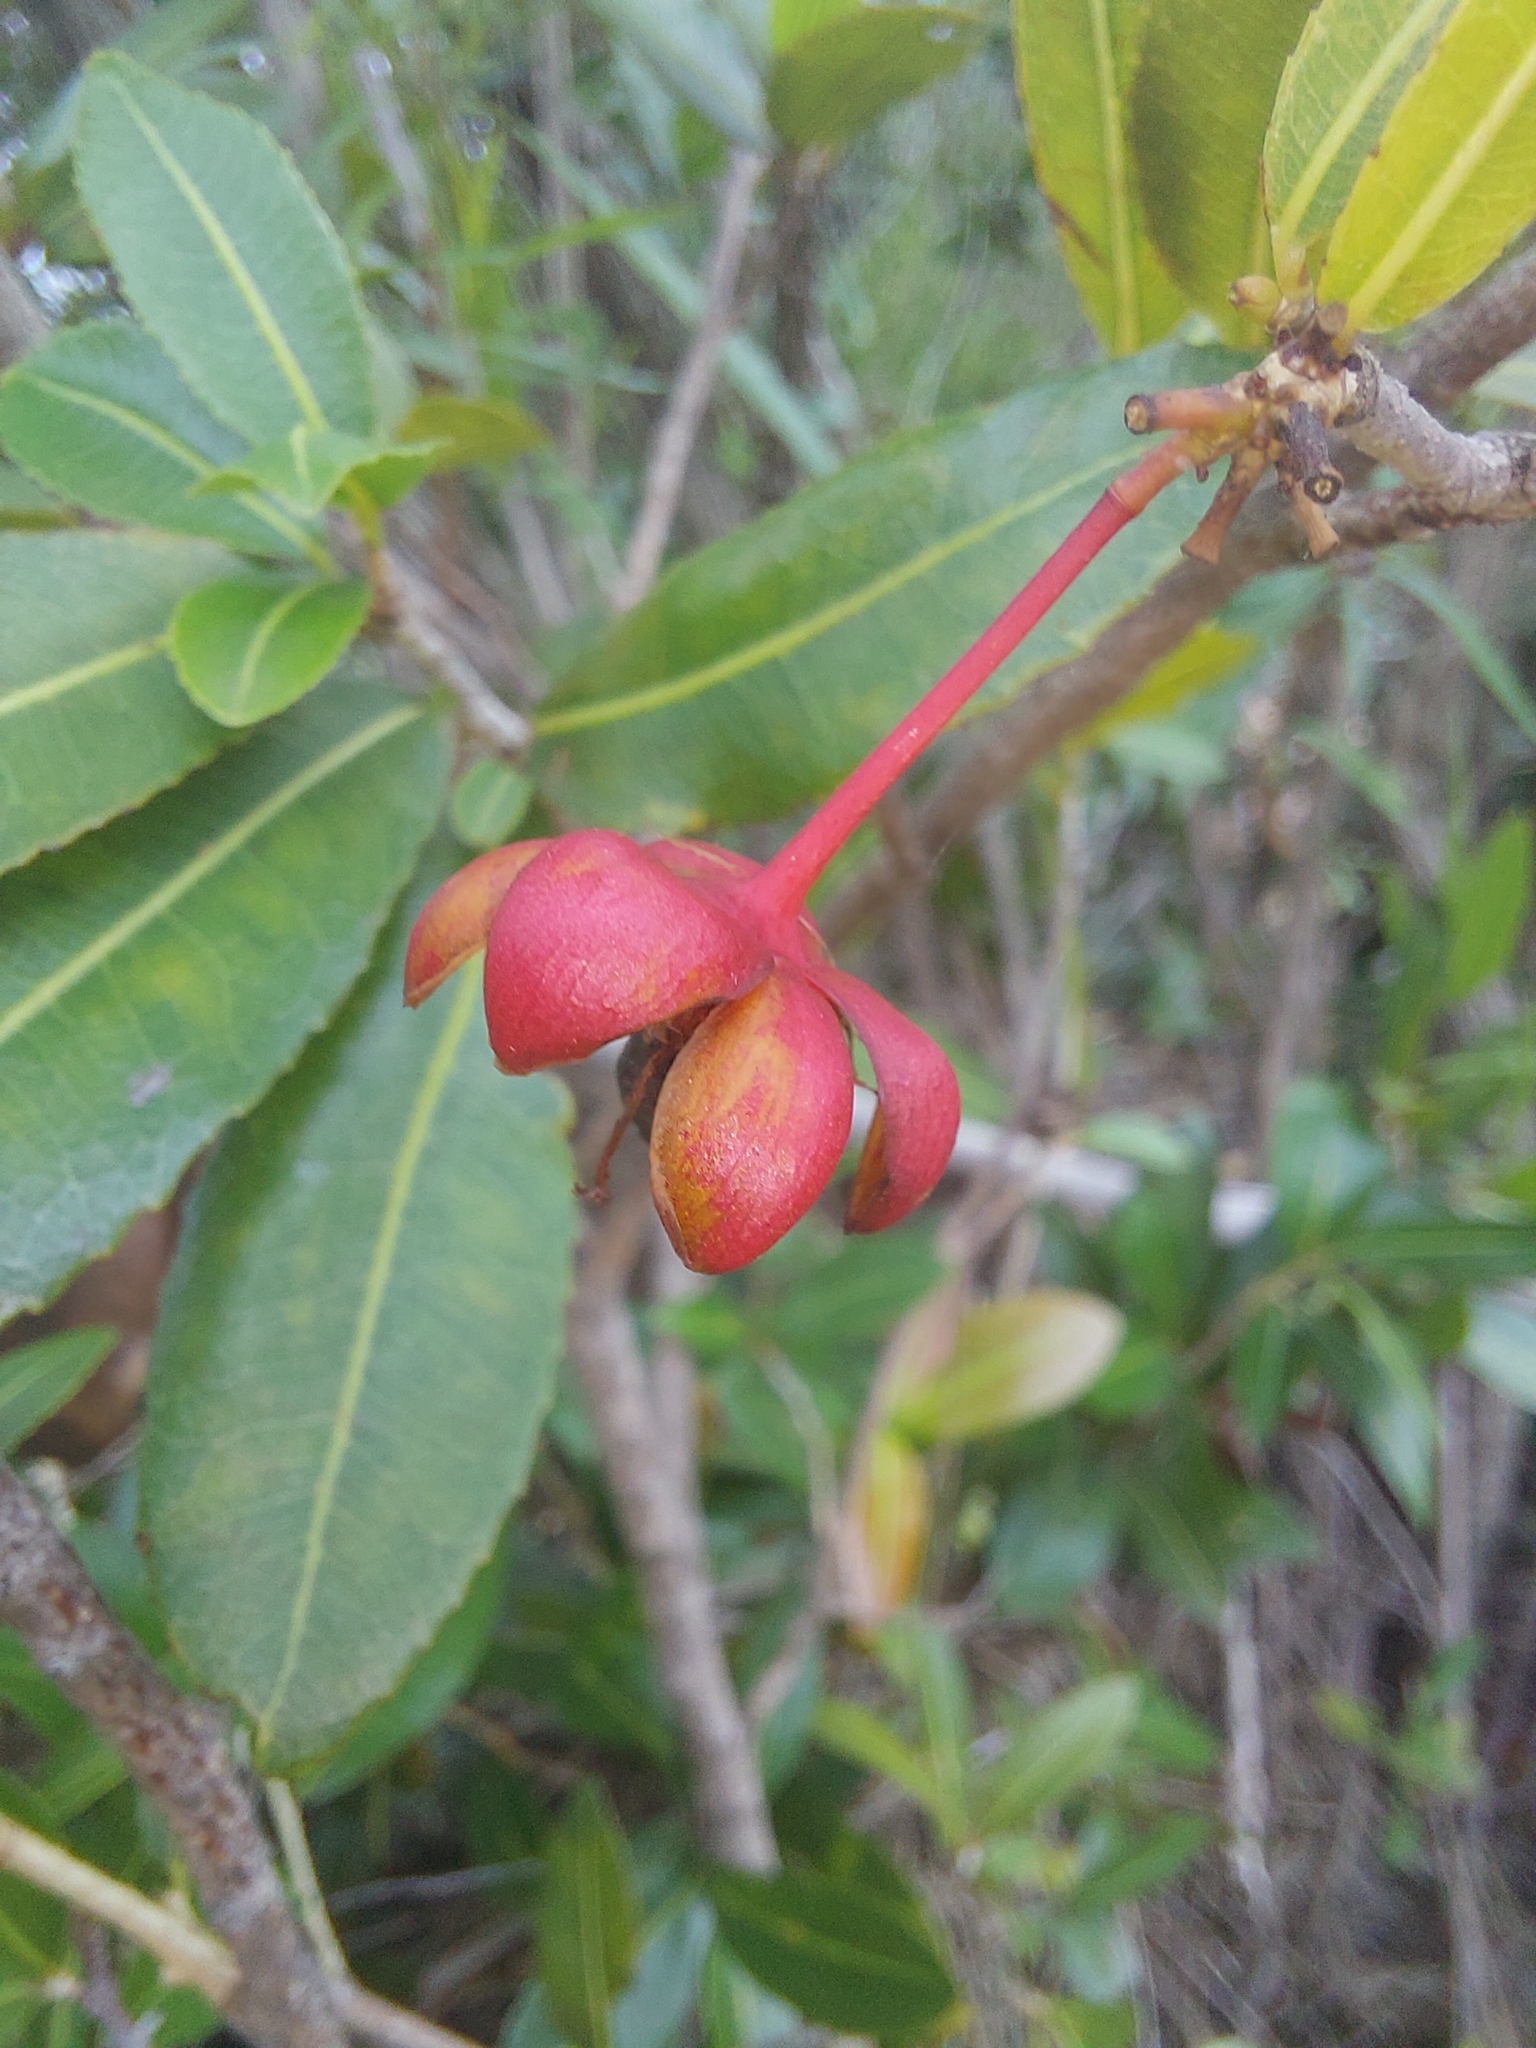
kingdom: Plantae
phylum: Tracheophyta
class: Magnoliopsida
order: Malpighiales
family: Ochnaceae
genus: Ochna
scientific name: Ochna natalitia
